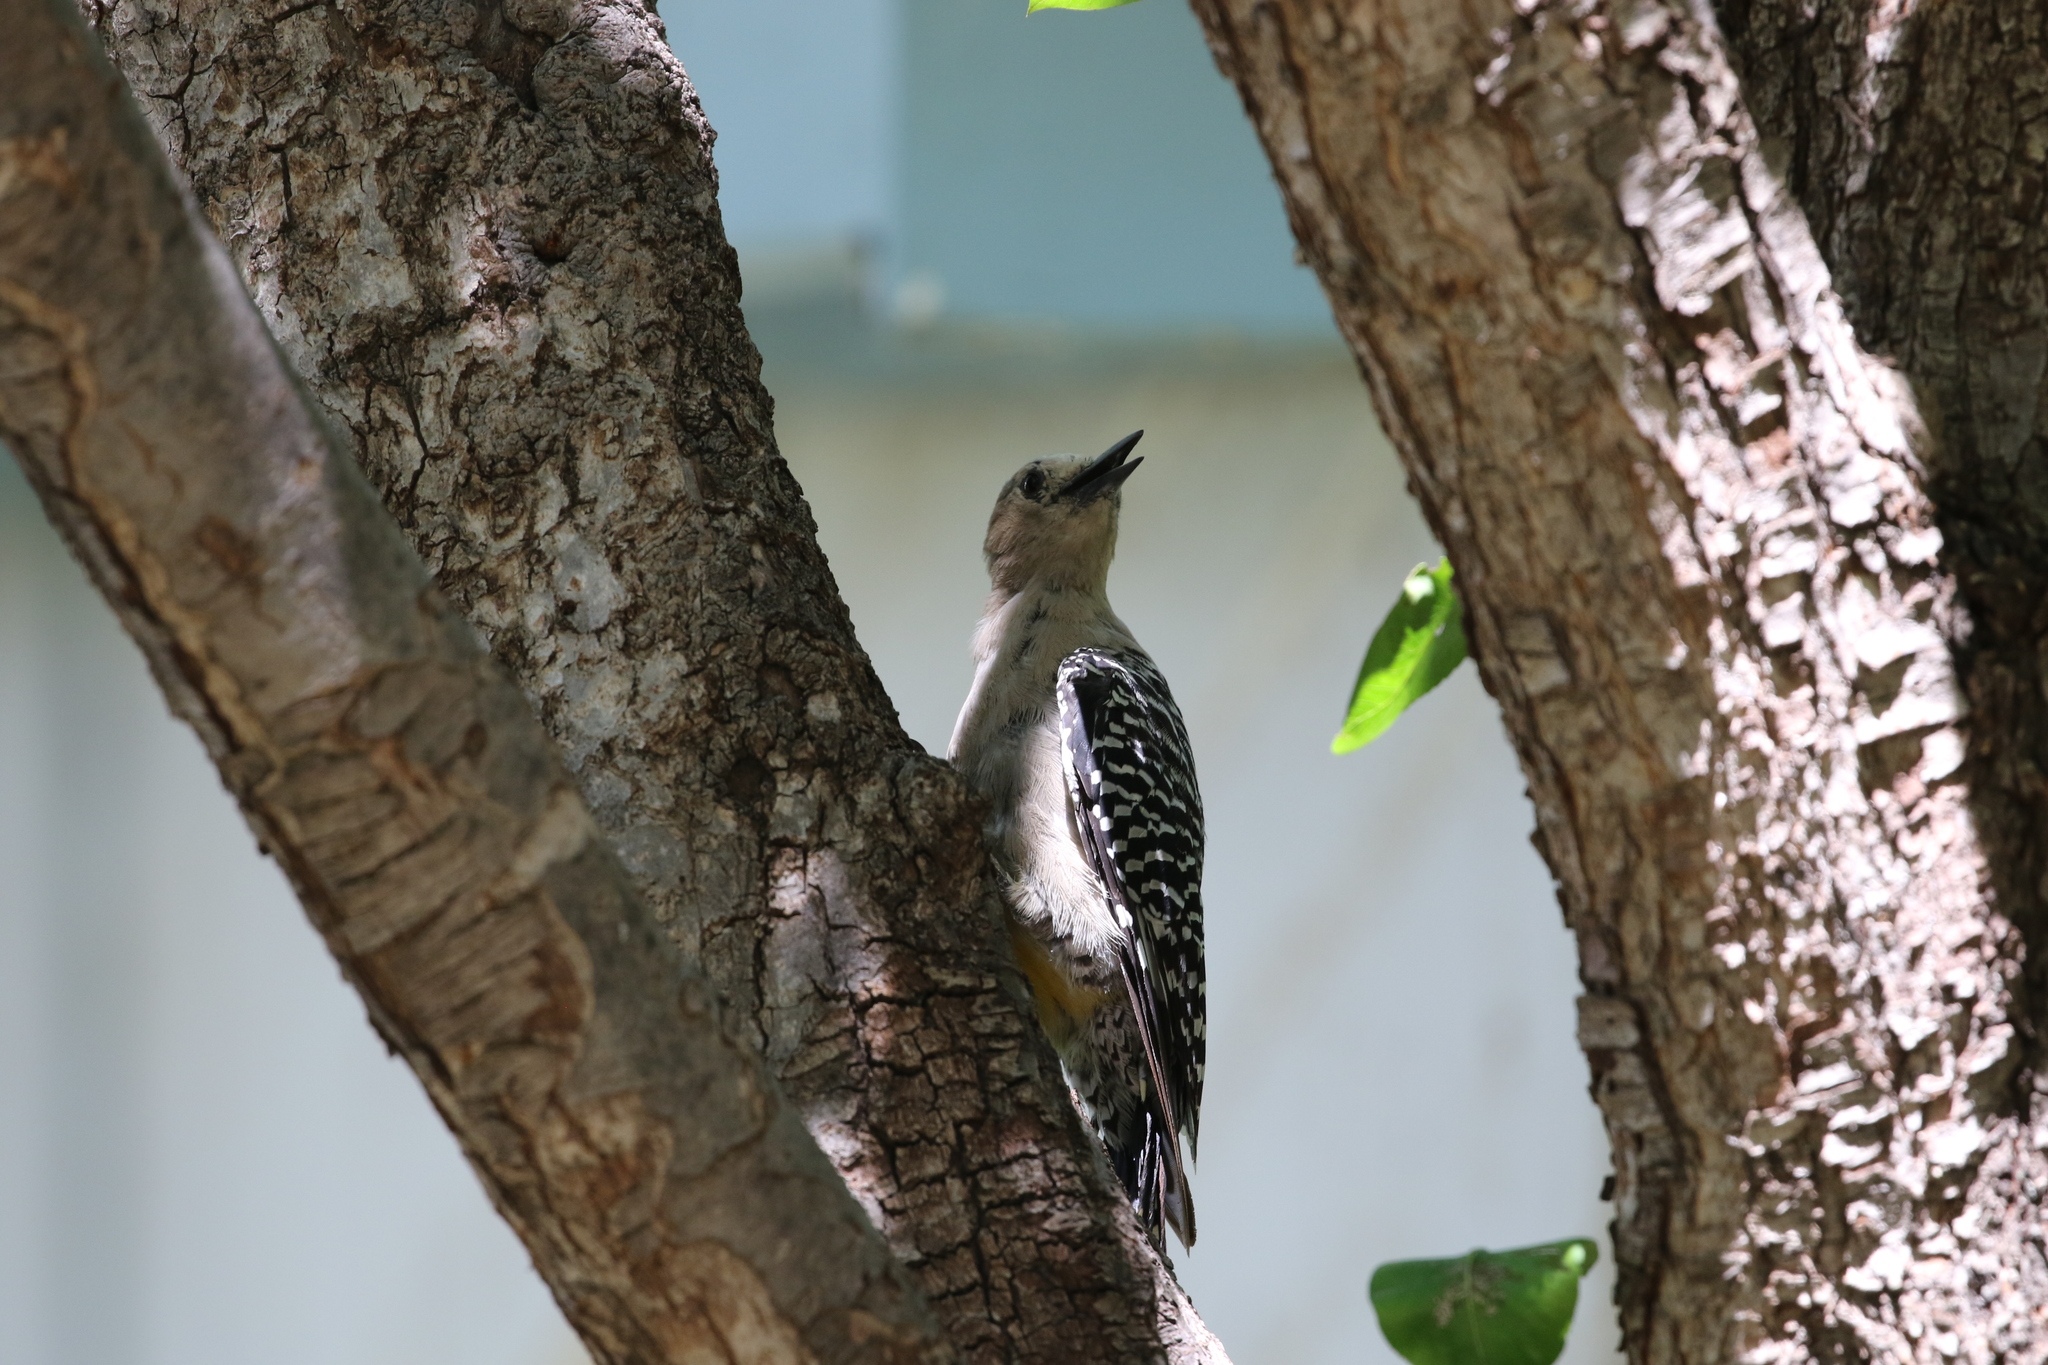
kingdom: Animalia
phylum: Chordata
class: Aves
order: Piciformes
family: Picidae
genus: Melanerpes
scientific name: Melanerpes uropygialis
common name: Gila woodpecker
